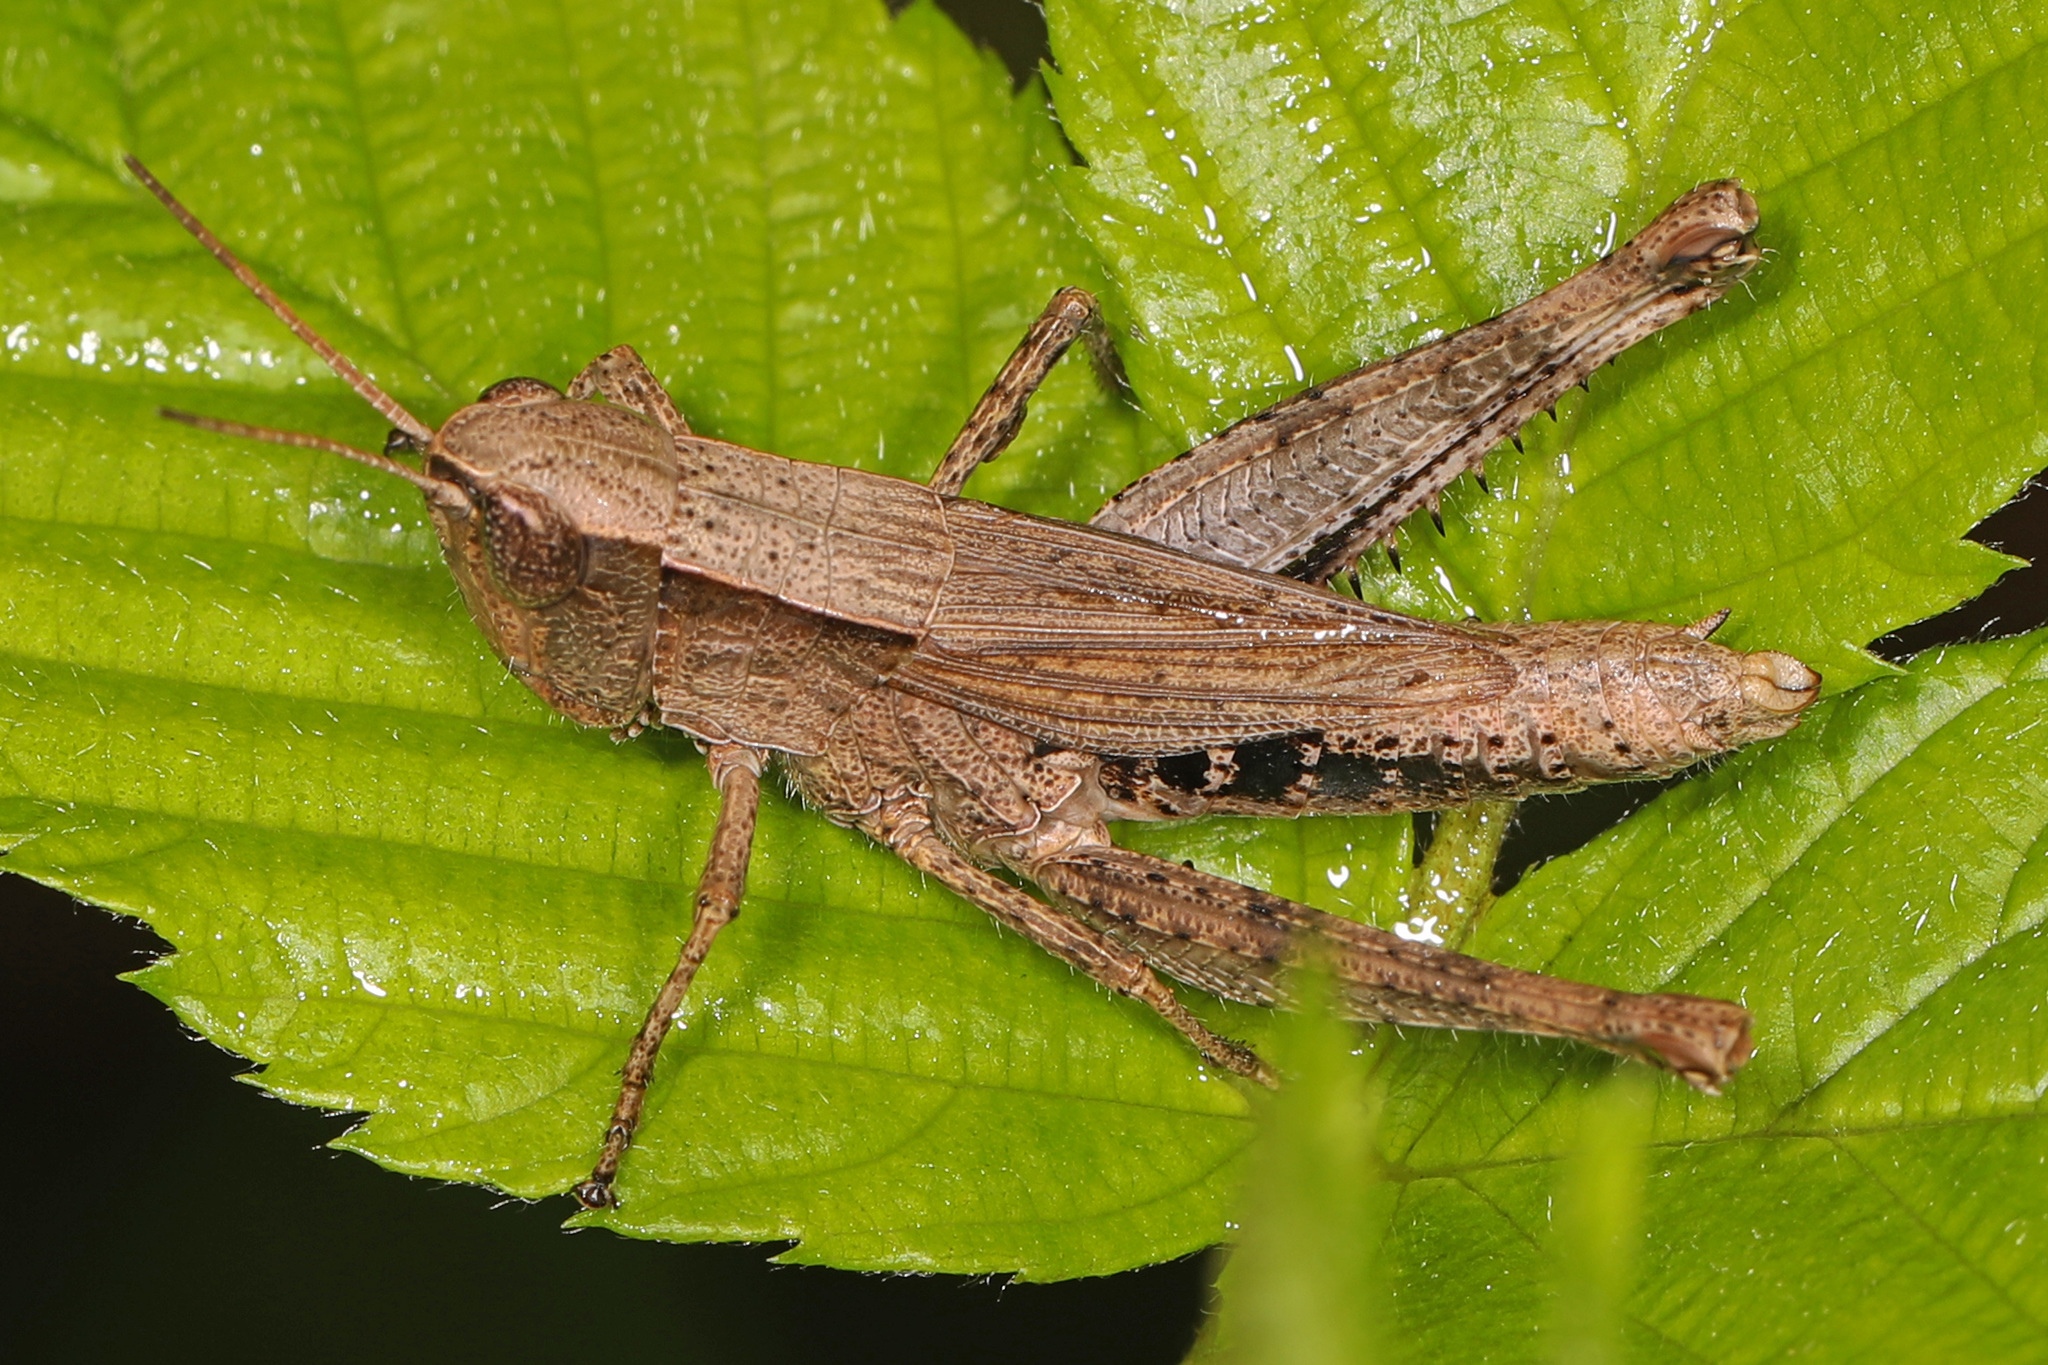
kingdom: Animalia
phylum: Arthropoda
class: Insecta
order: Orthoptera
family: Acrididae
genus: Dichromorpha
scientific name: Dichromorpha viridis
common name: Short-winged green grasshopper
